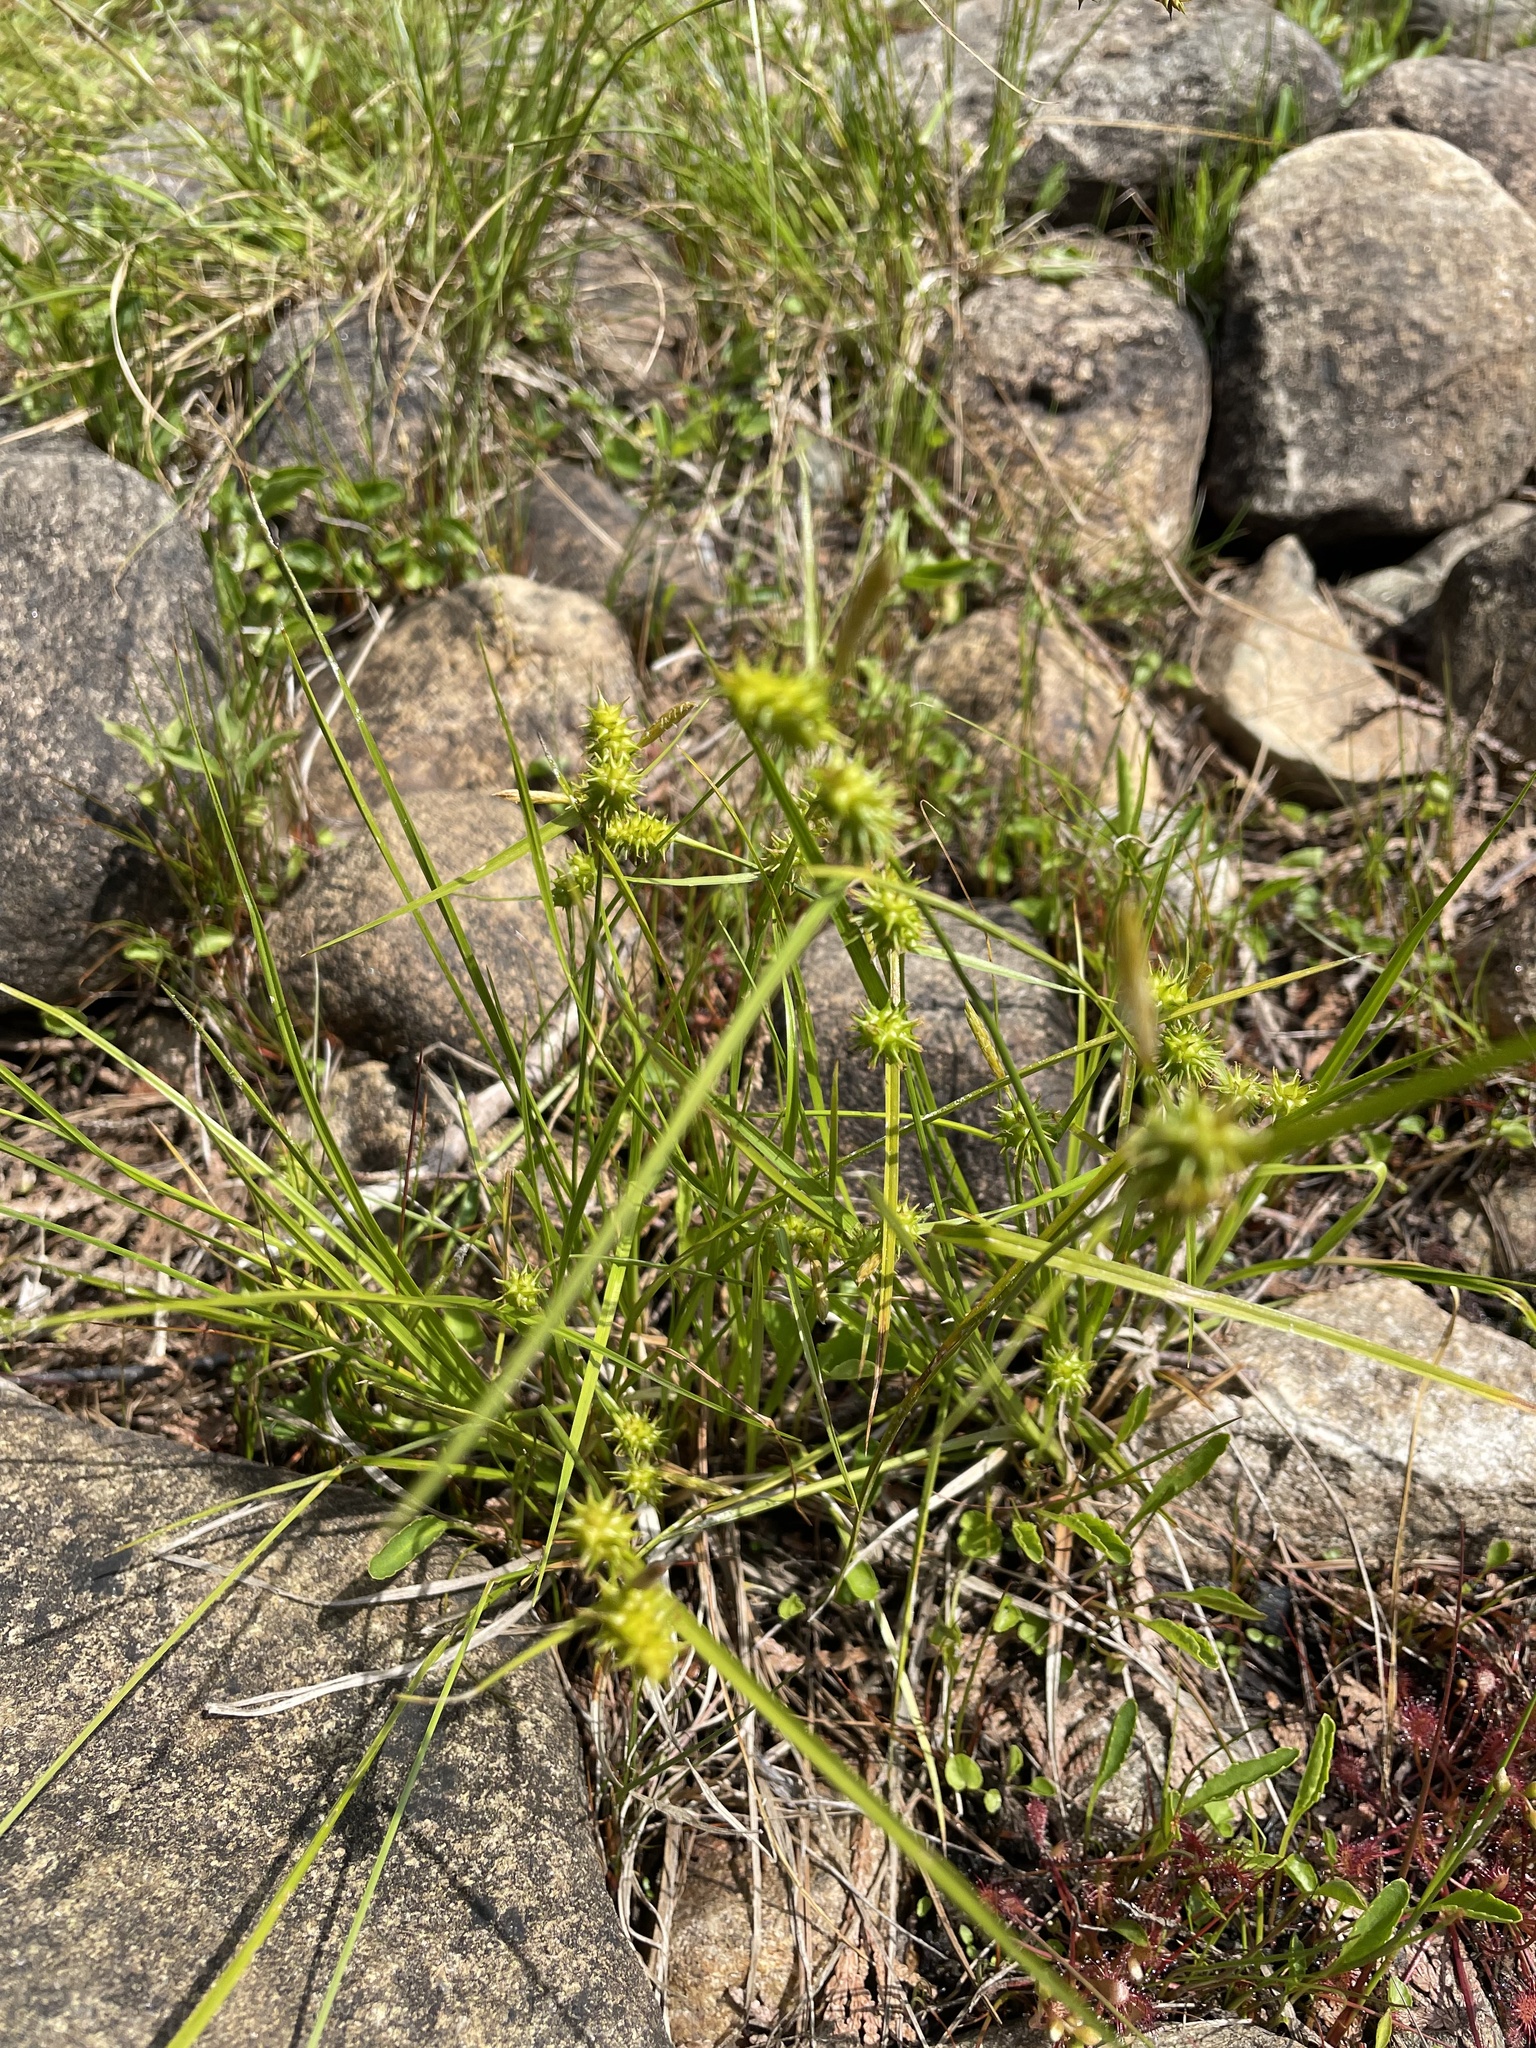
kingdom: Plantae
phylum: Tracheophyta
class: Liliopsida
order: Poales
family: Cyperaceae
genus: Carex
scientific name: Carex cryptolepis
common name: Northeastern sedge
